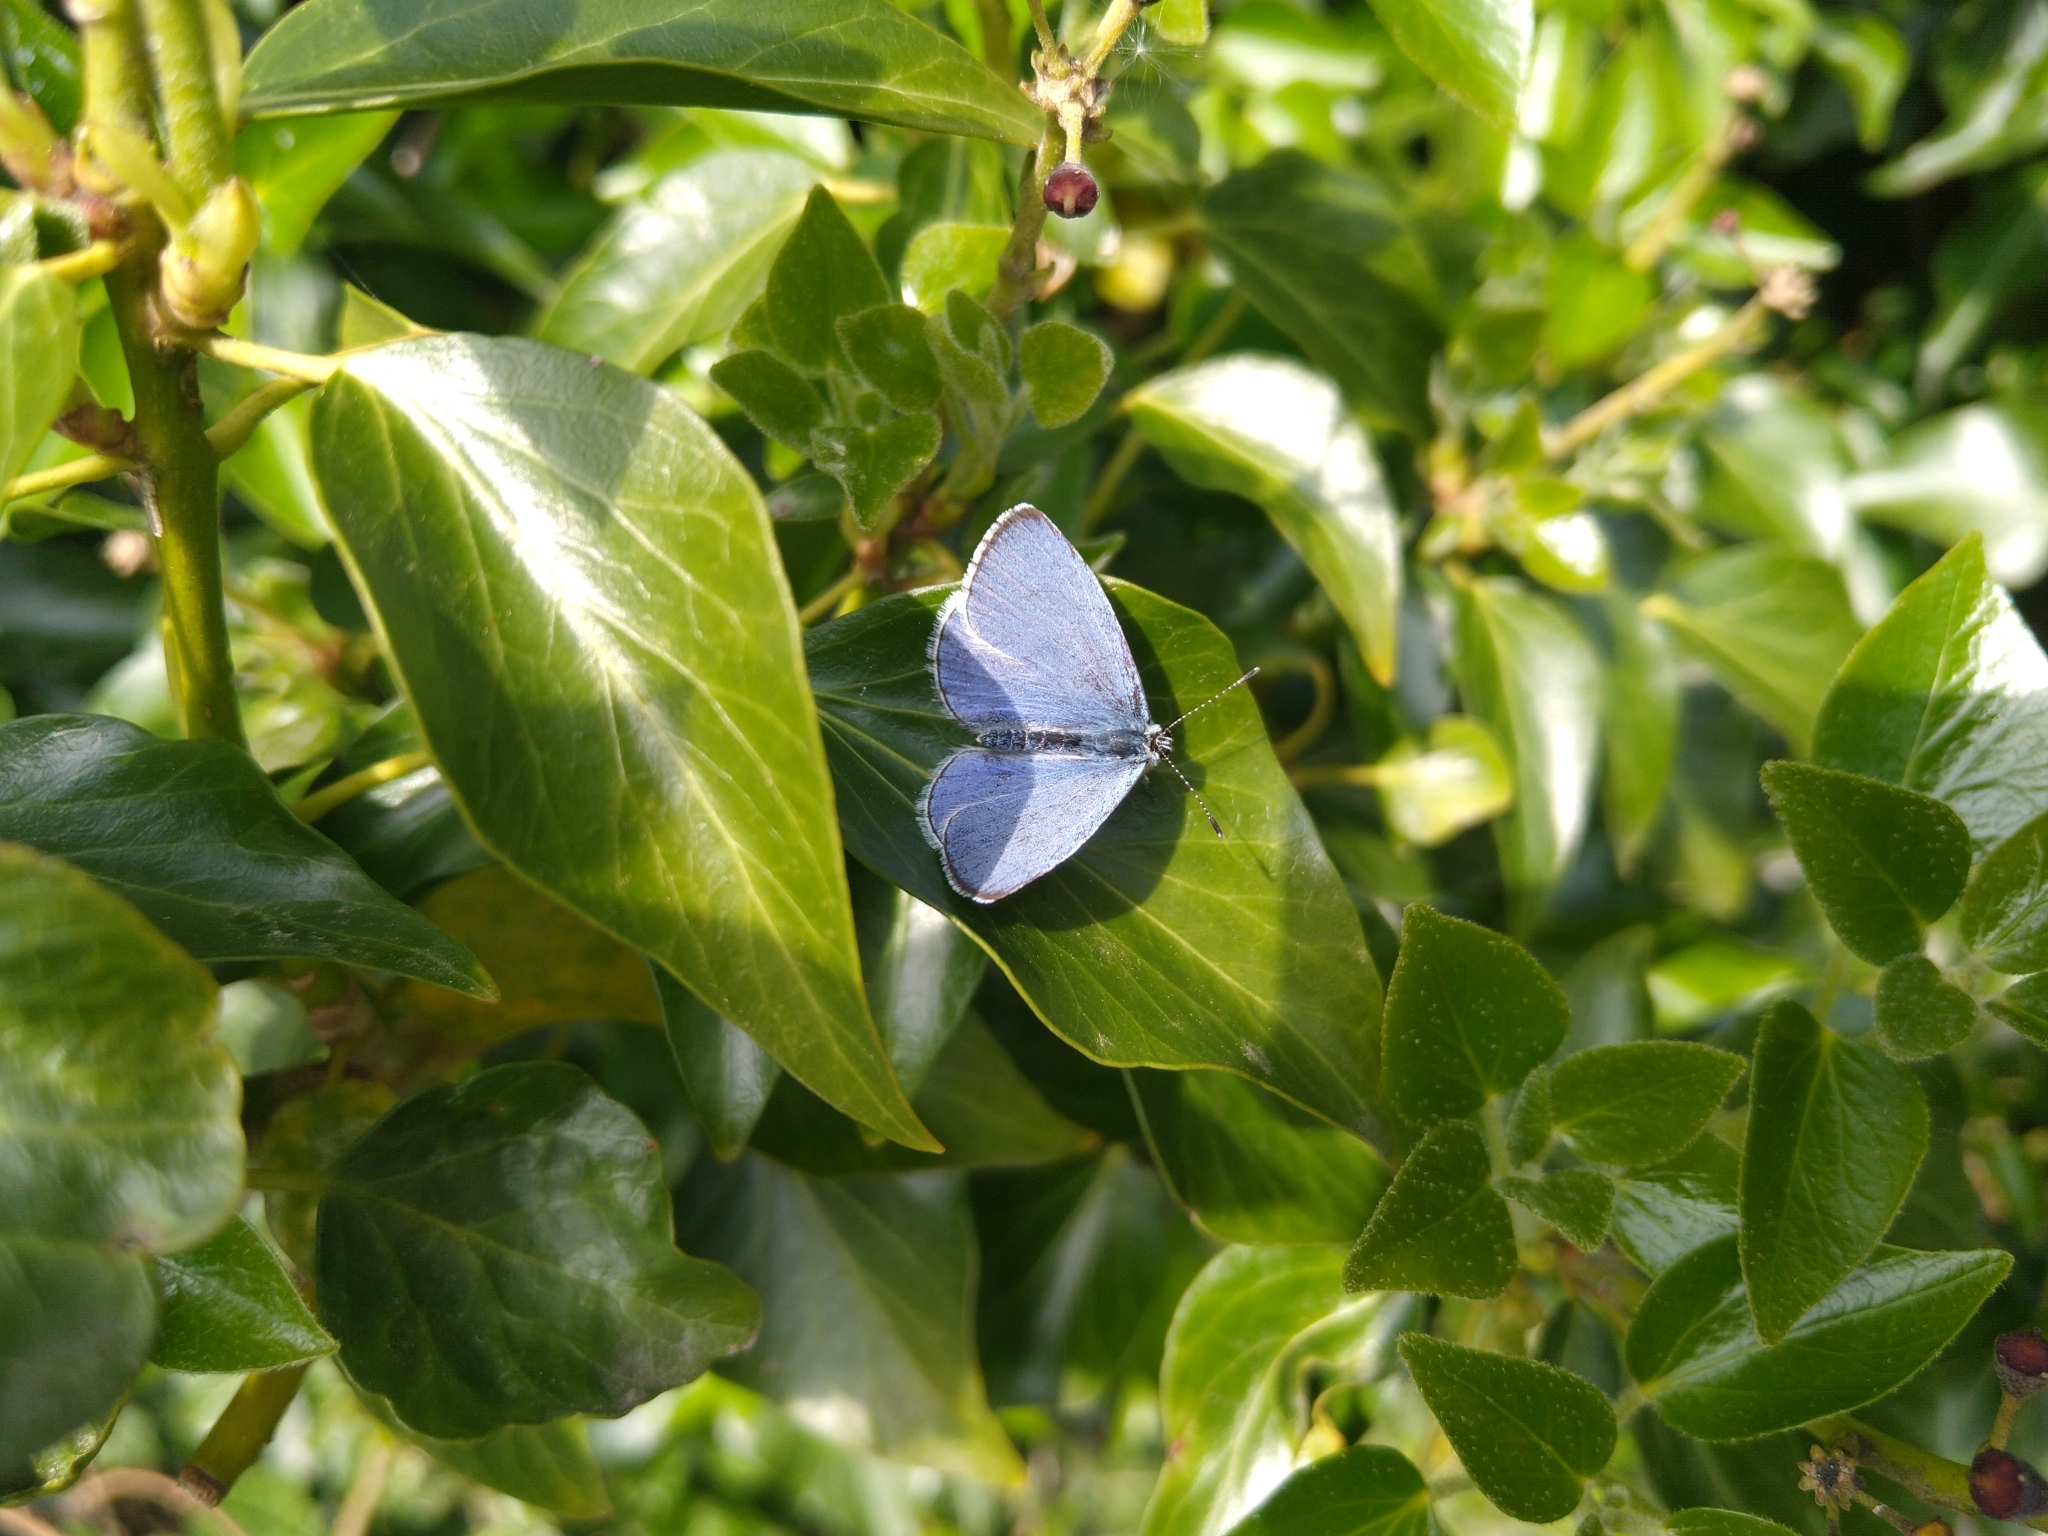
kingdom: Animalia
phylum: Arthropoda
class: Insecta
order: Lepidoptera
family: Lycaenidae
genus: Celastrina
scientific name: Celastrina argiolus
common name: Holly blue
